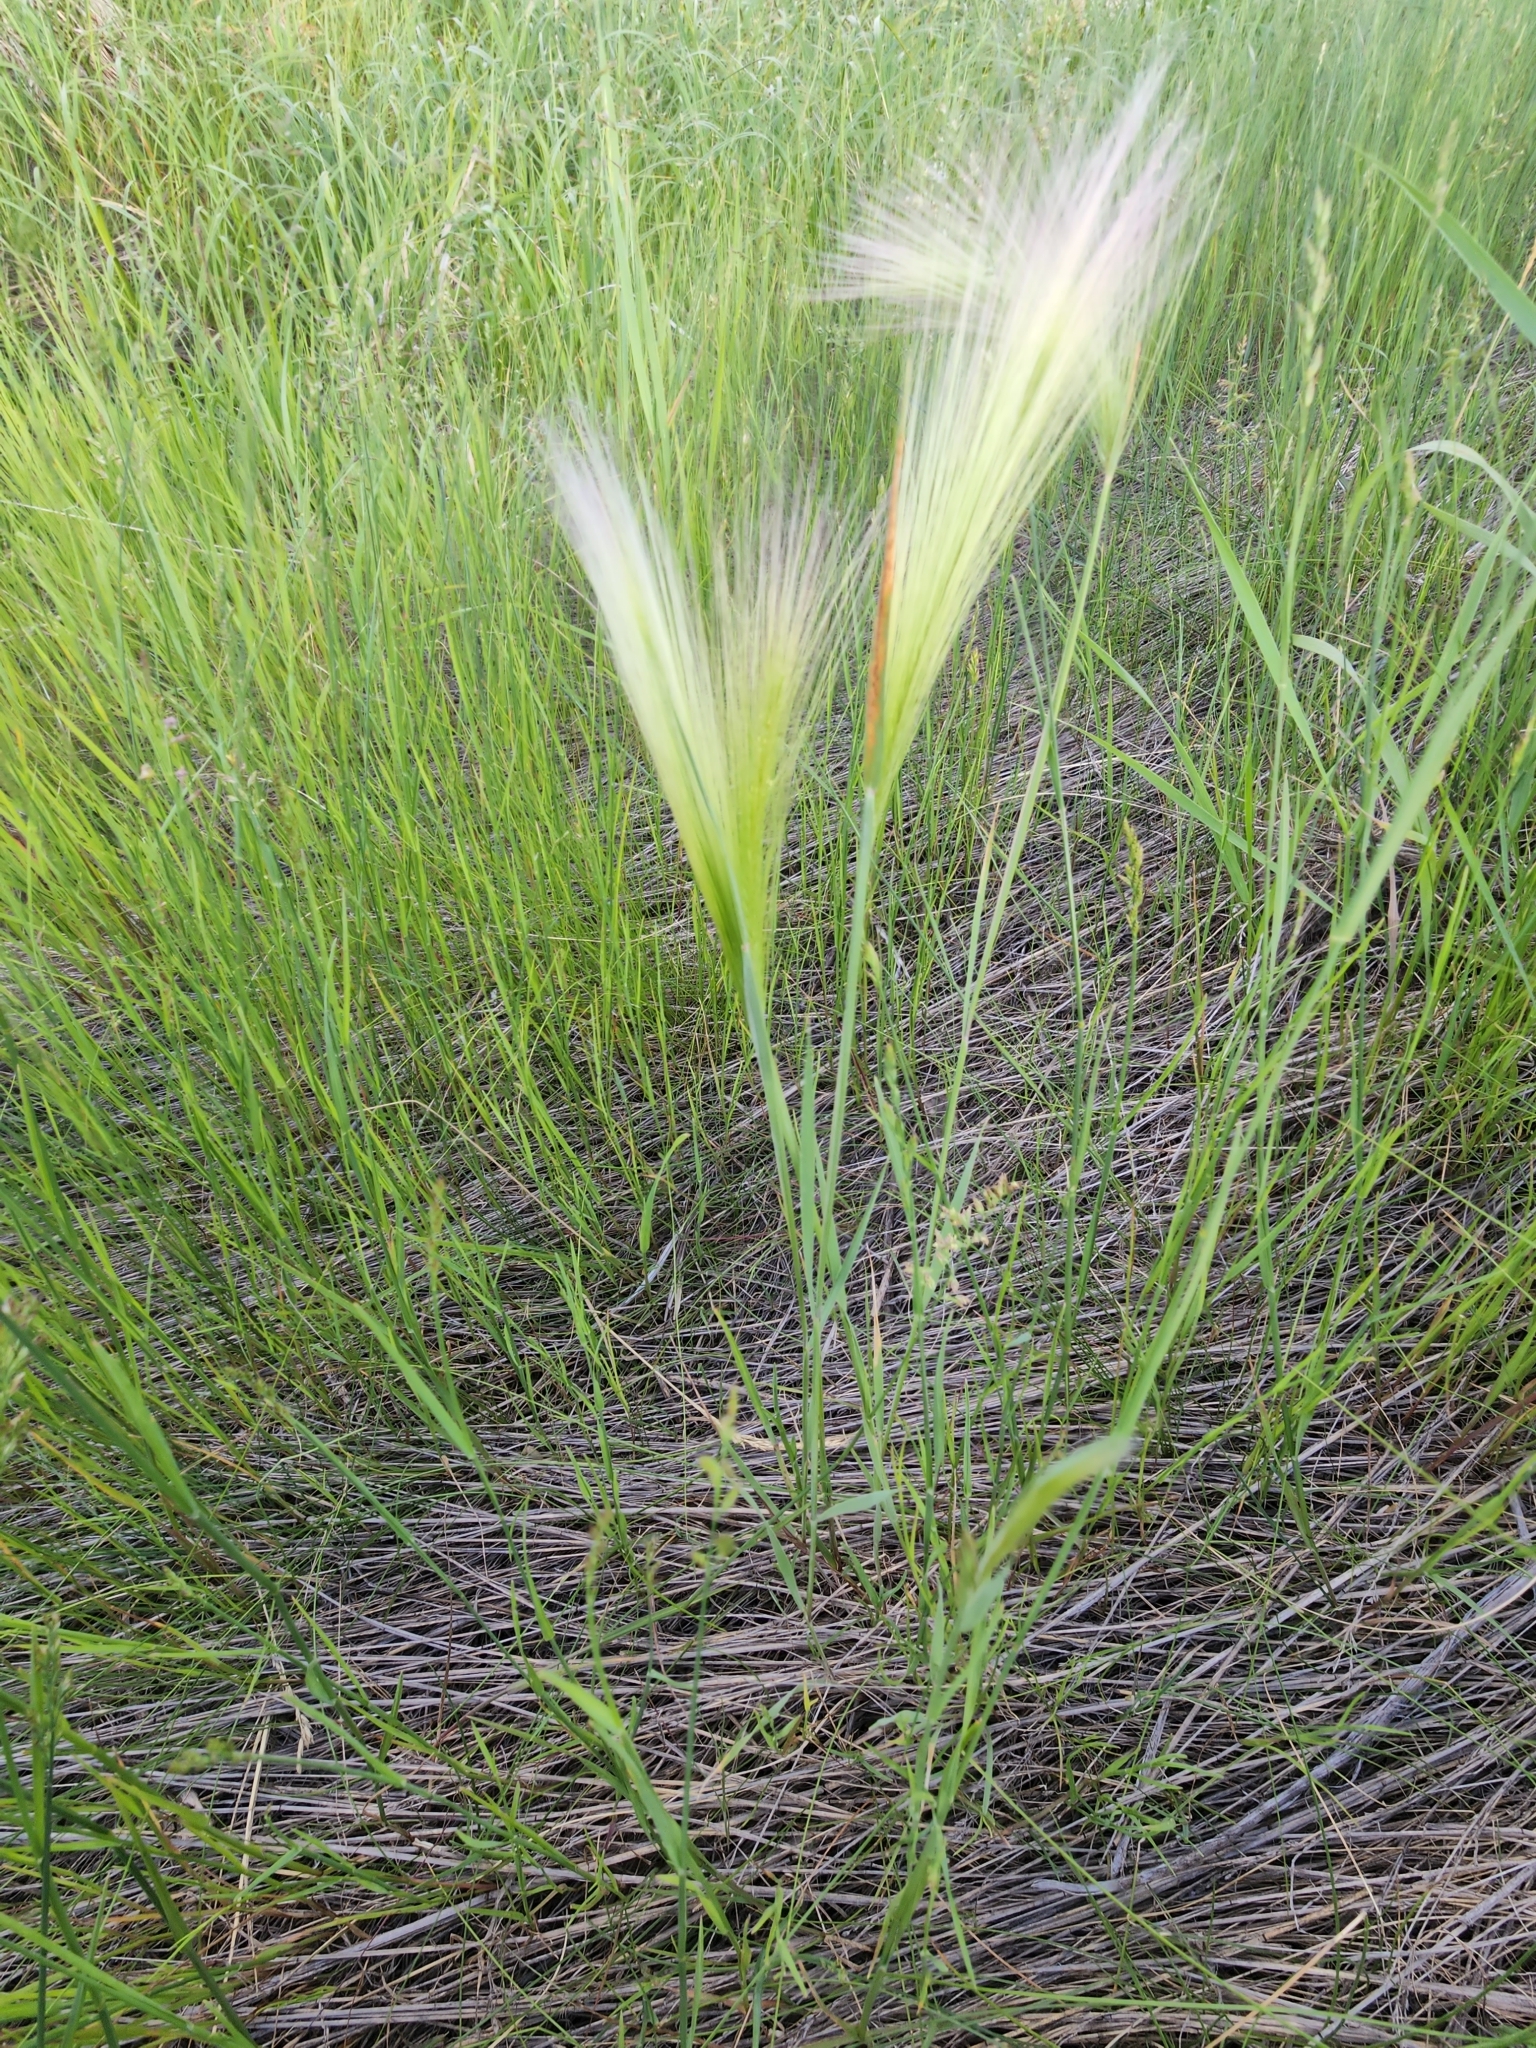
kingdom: Plantae
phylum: Tracheophyta
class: Liliopsida
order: Poales
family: Poaceae
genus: Hordeum
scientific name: Hordeum jubatum
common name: Foxtail barley
